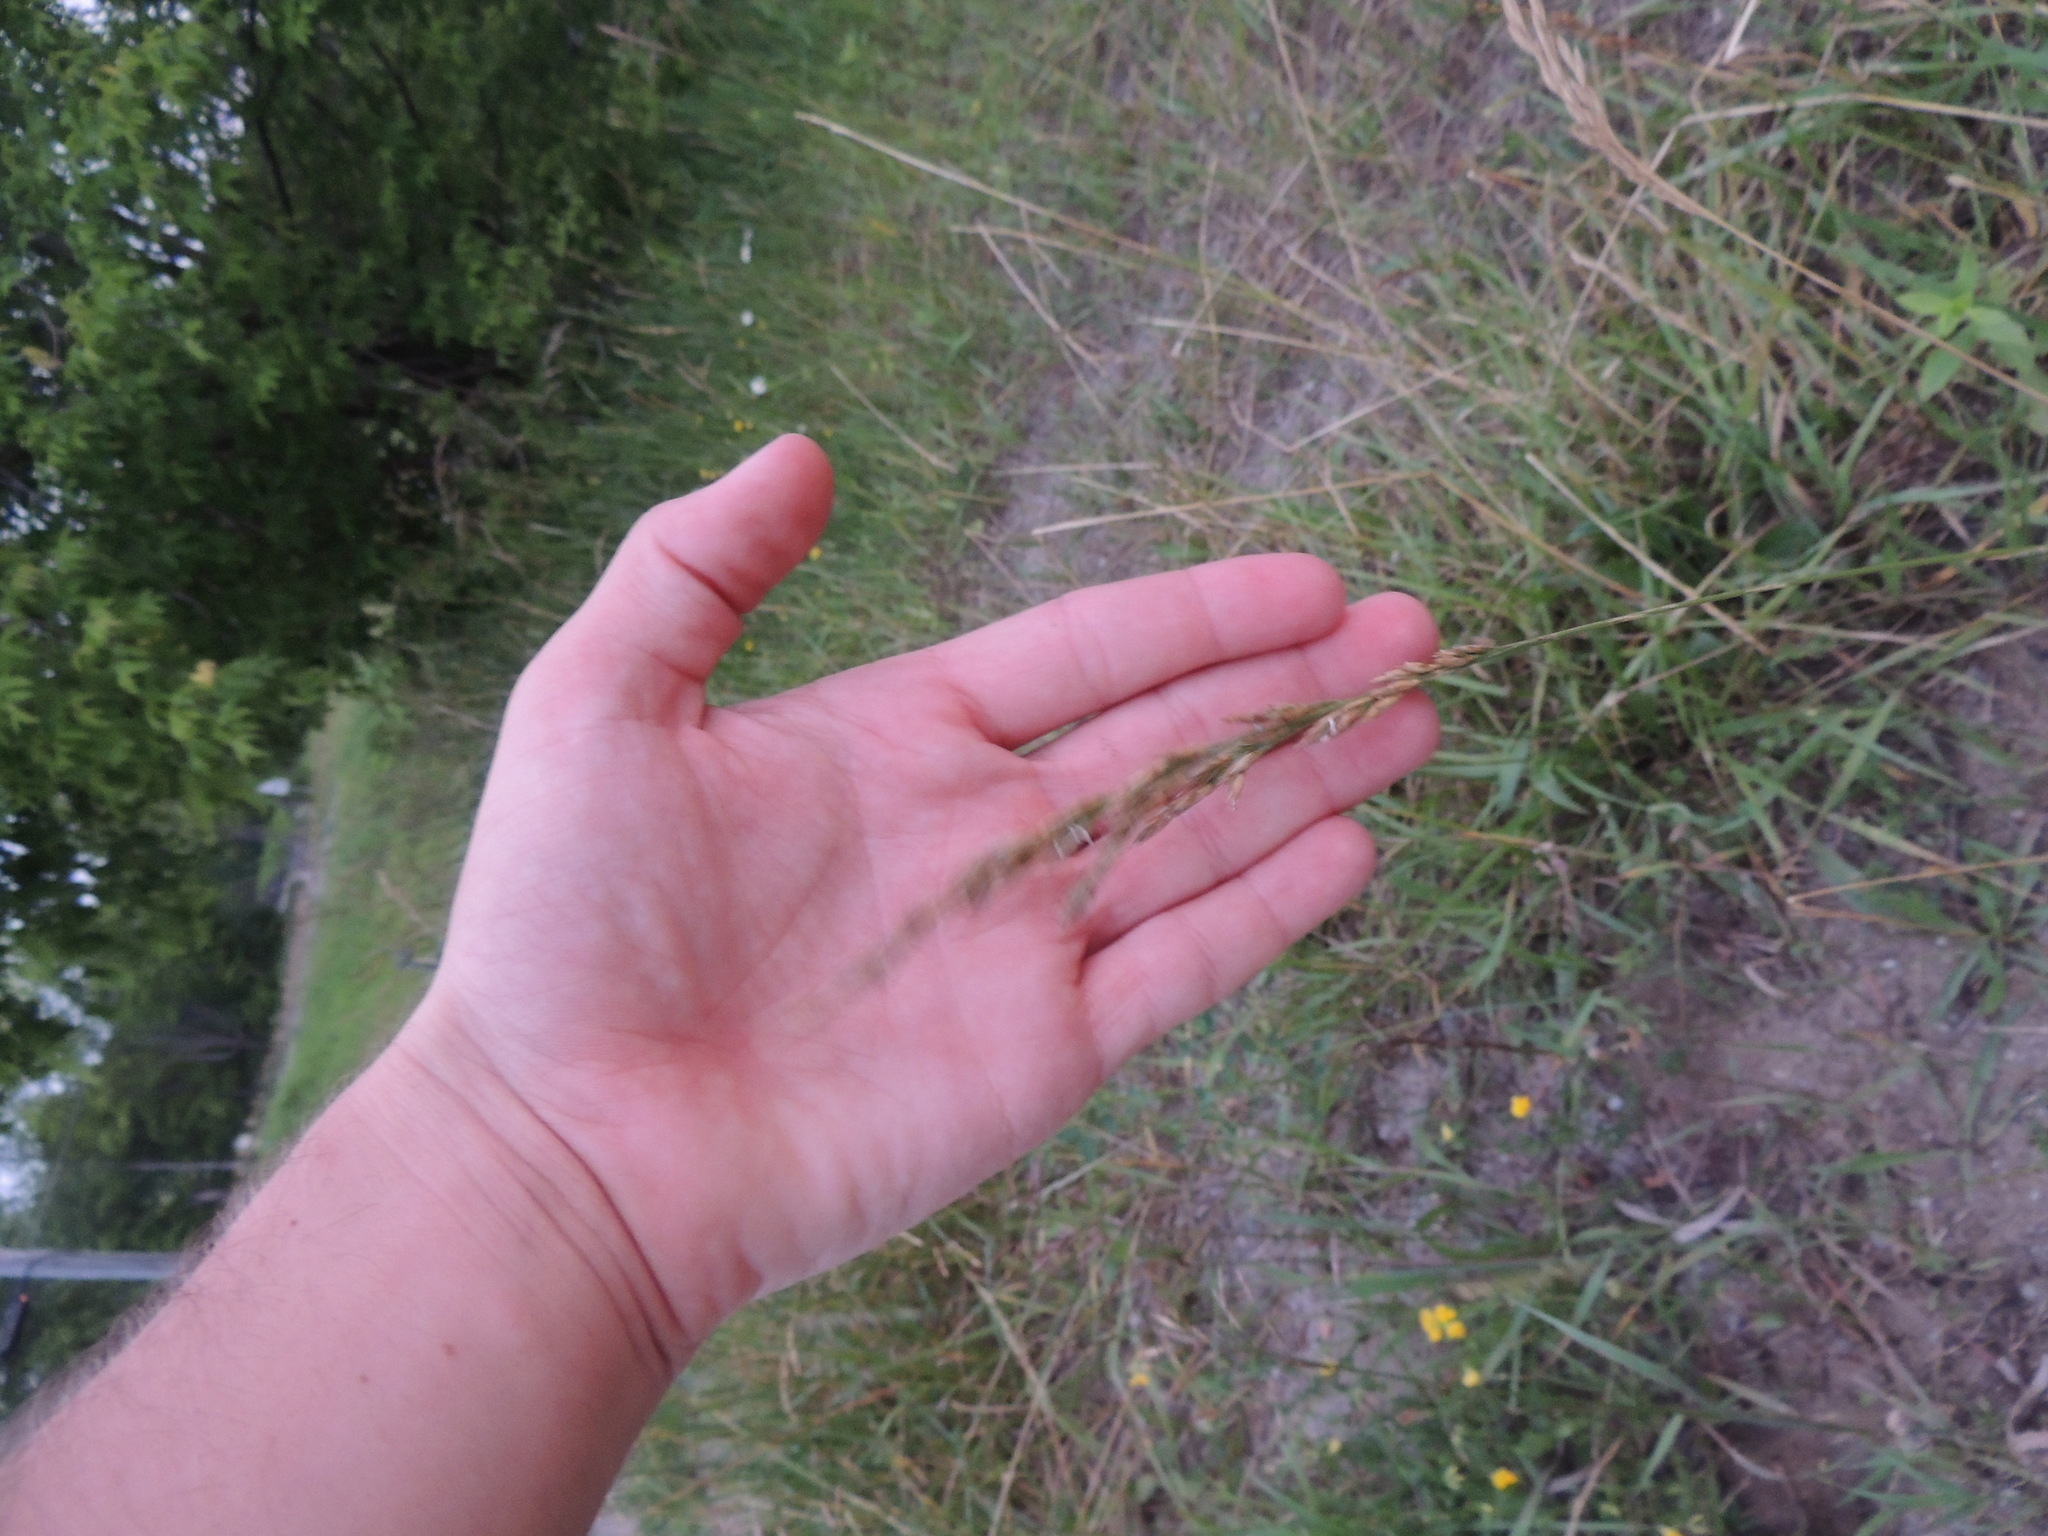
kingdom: Plantae
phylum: Tracheophyta
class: Liliopsida
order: Poales
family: Poaceae
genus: Lolium
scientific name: Lolium arundinaceum
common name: Reed fescue
